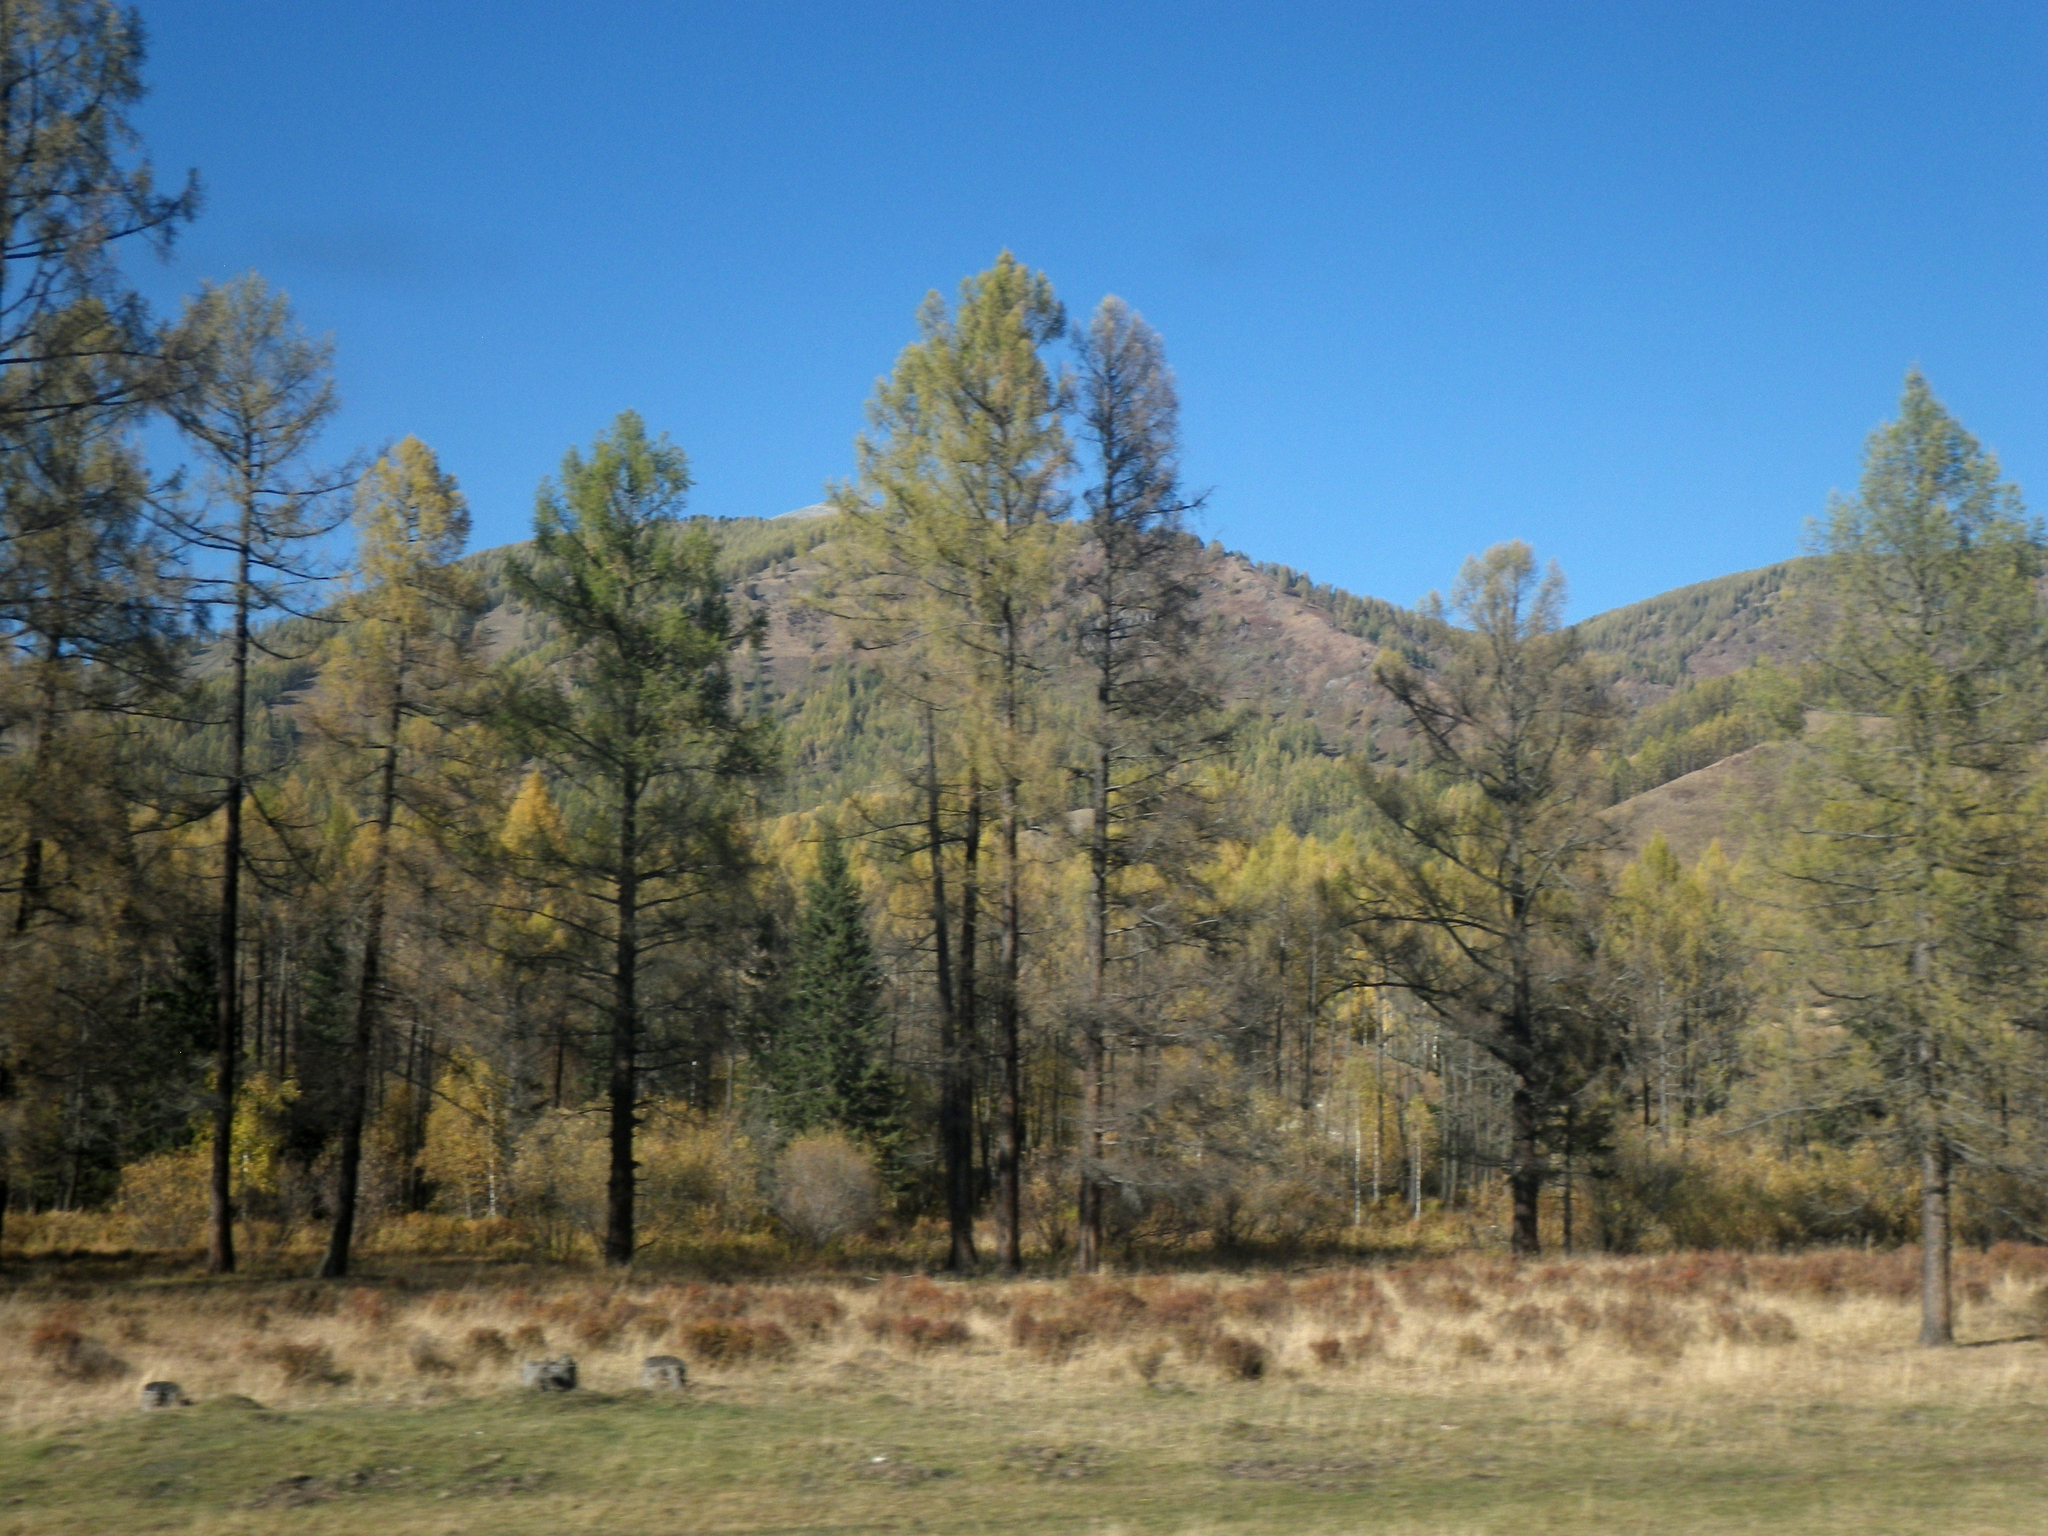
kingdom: Plantae
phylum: Tracheophyta
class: Pinopsida
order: Pinales
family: Pinaceae
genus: Larix
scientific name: Larix sibirica
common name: Siberian larch
